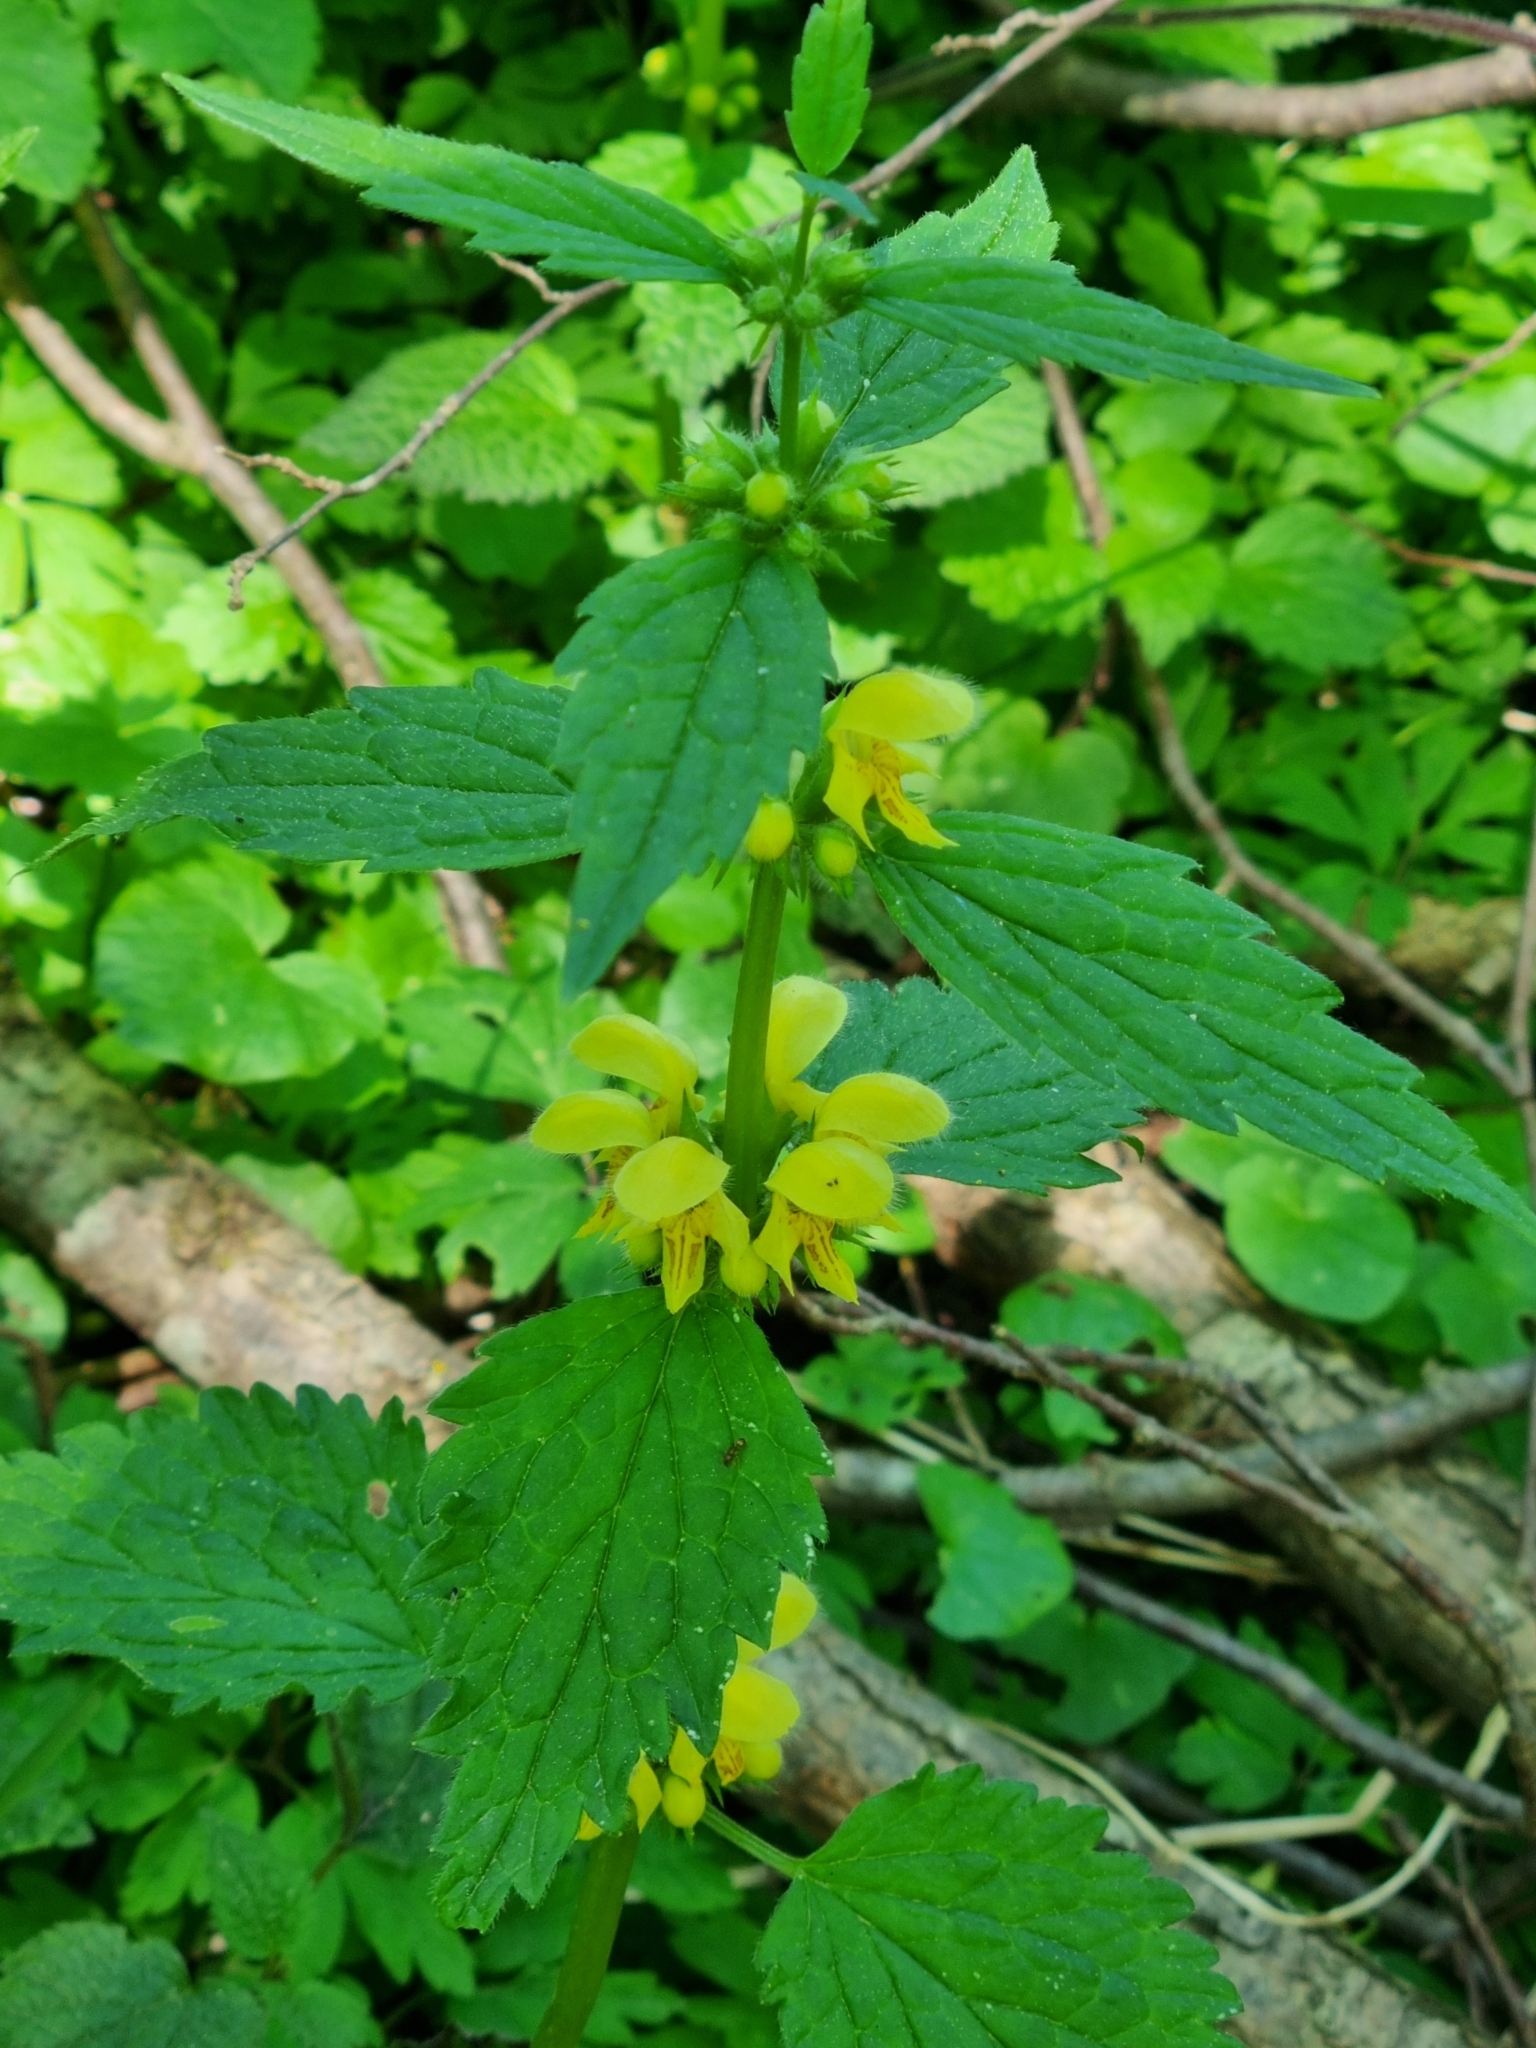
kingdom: Plantae
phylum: Tracheophyta
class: Magnoliopsida
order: Lamiales
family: Lamiaceae
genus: Lamium
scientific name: Lamium galeobdolon
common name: Yellow archangel
